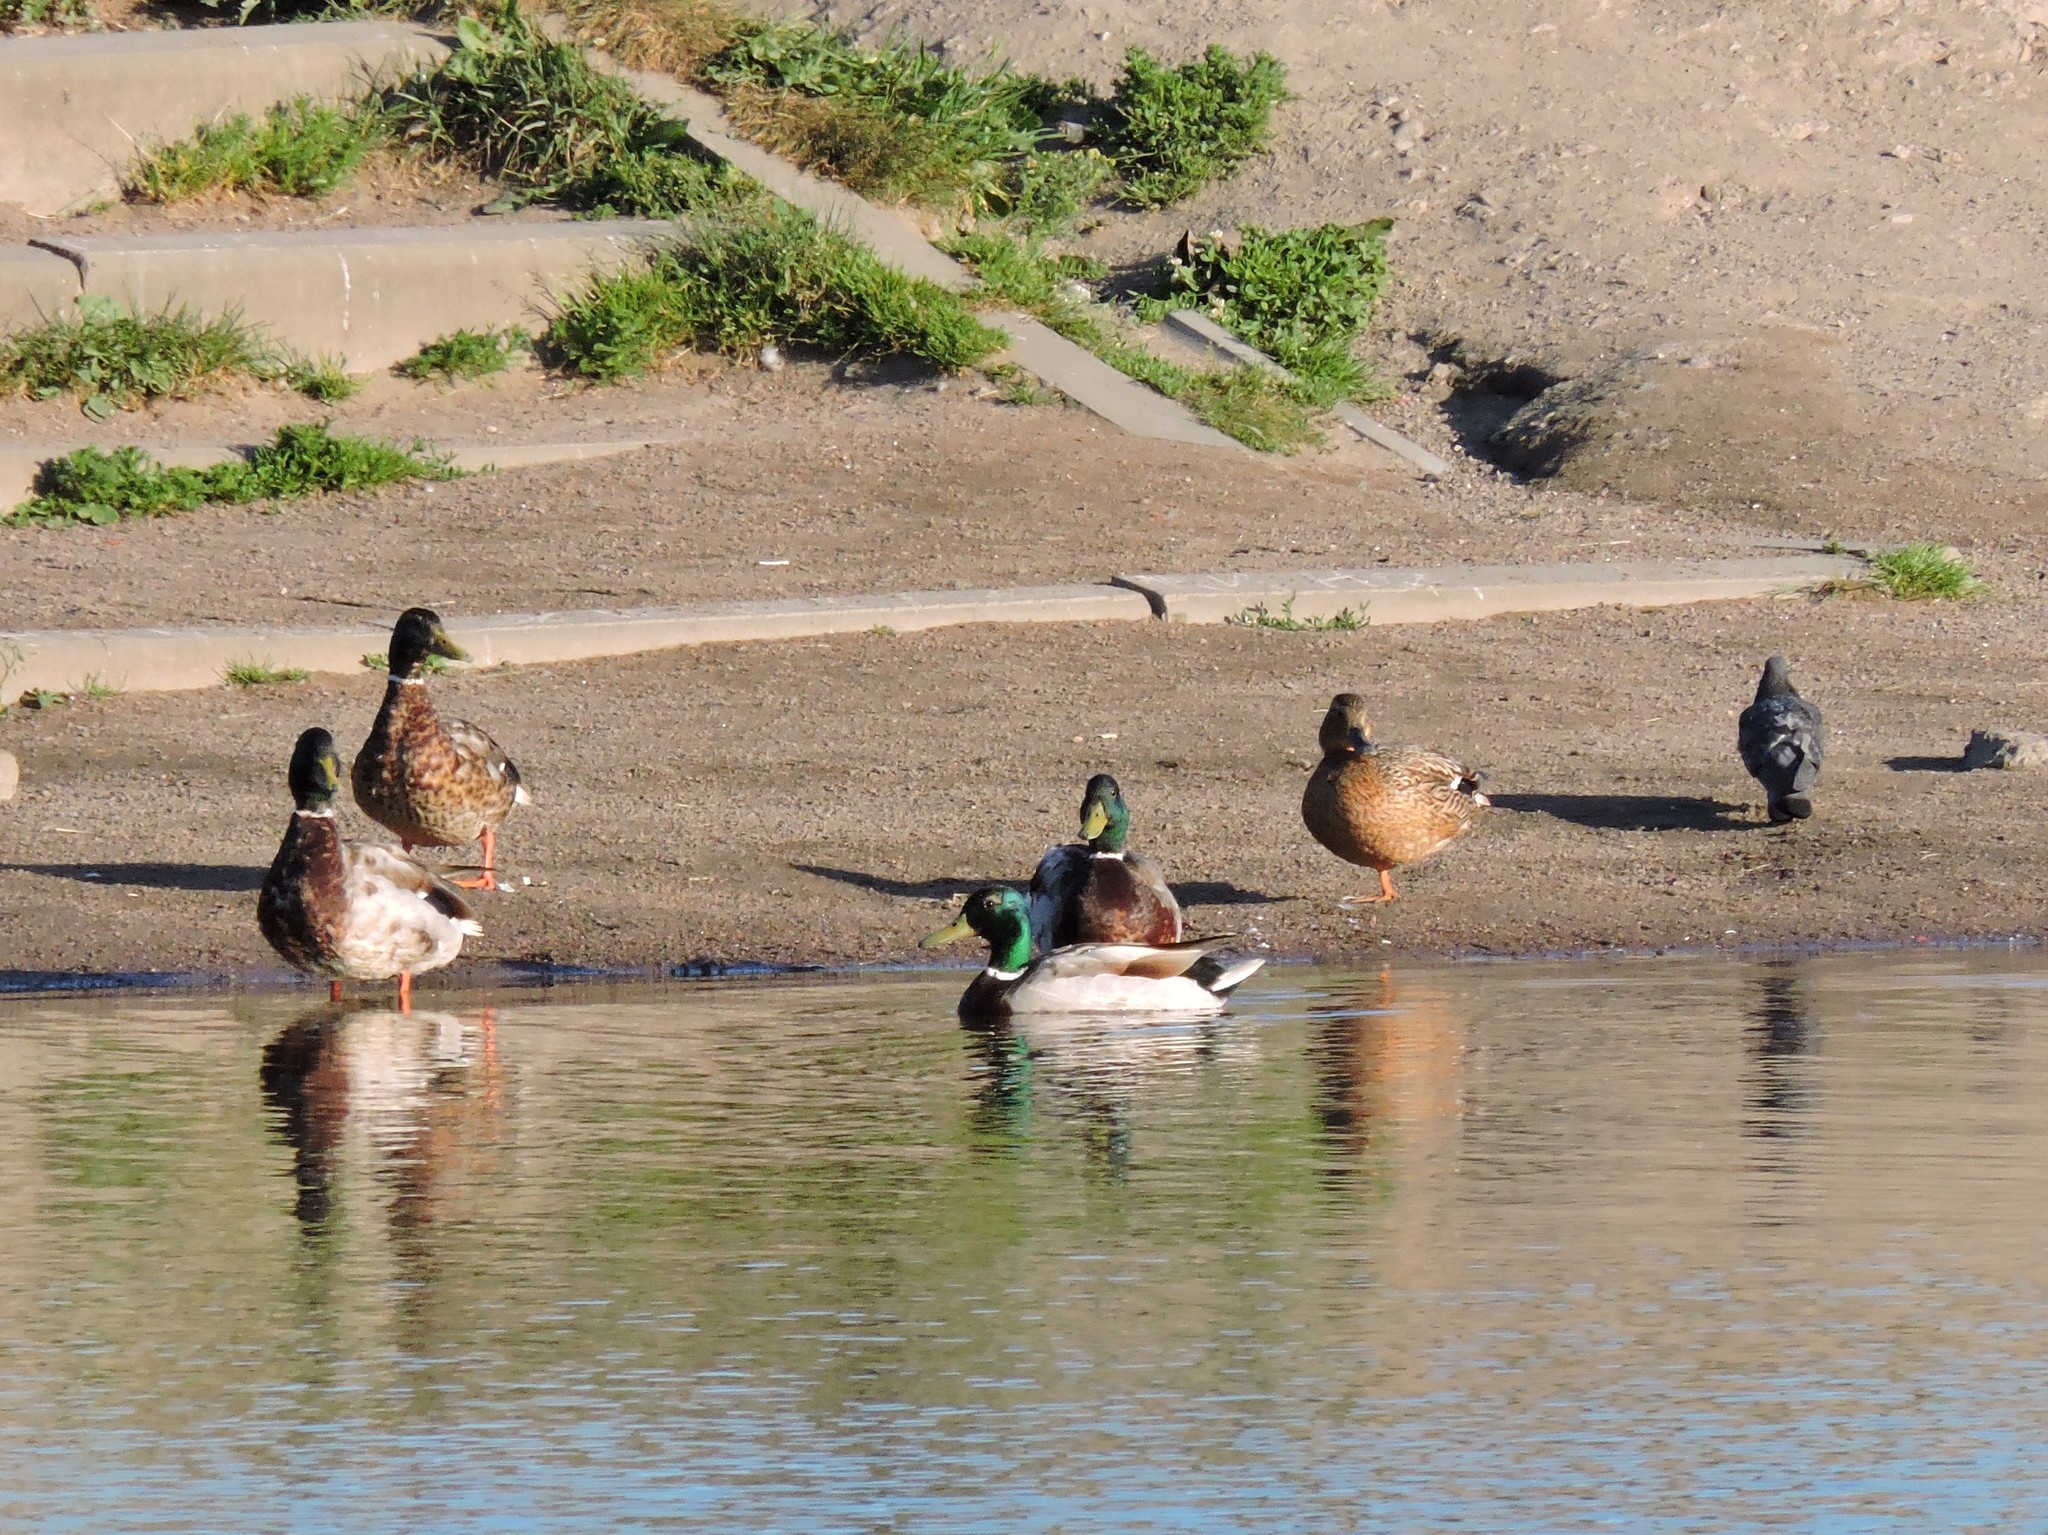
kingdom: Animalia
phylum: Chordata
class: Aves
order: Columbiformes
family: Columbidae
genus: Columba
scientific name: Columba livia
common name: Rock pigeon
